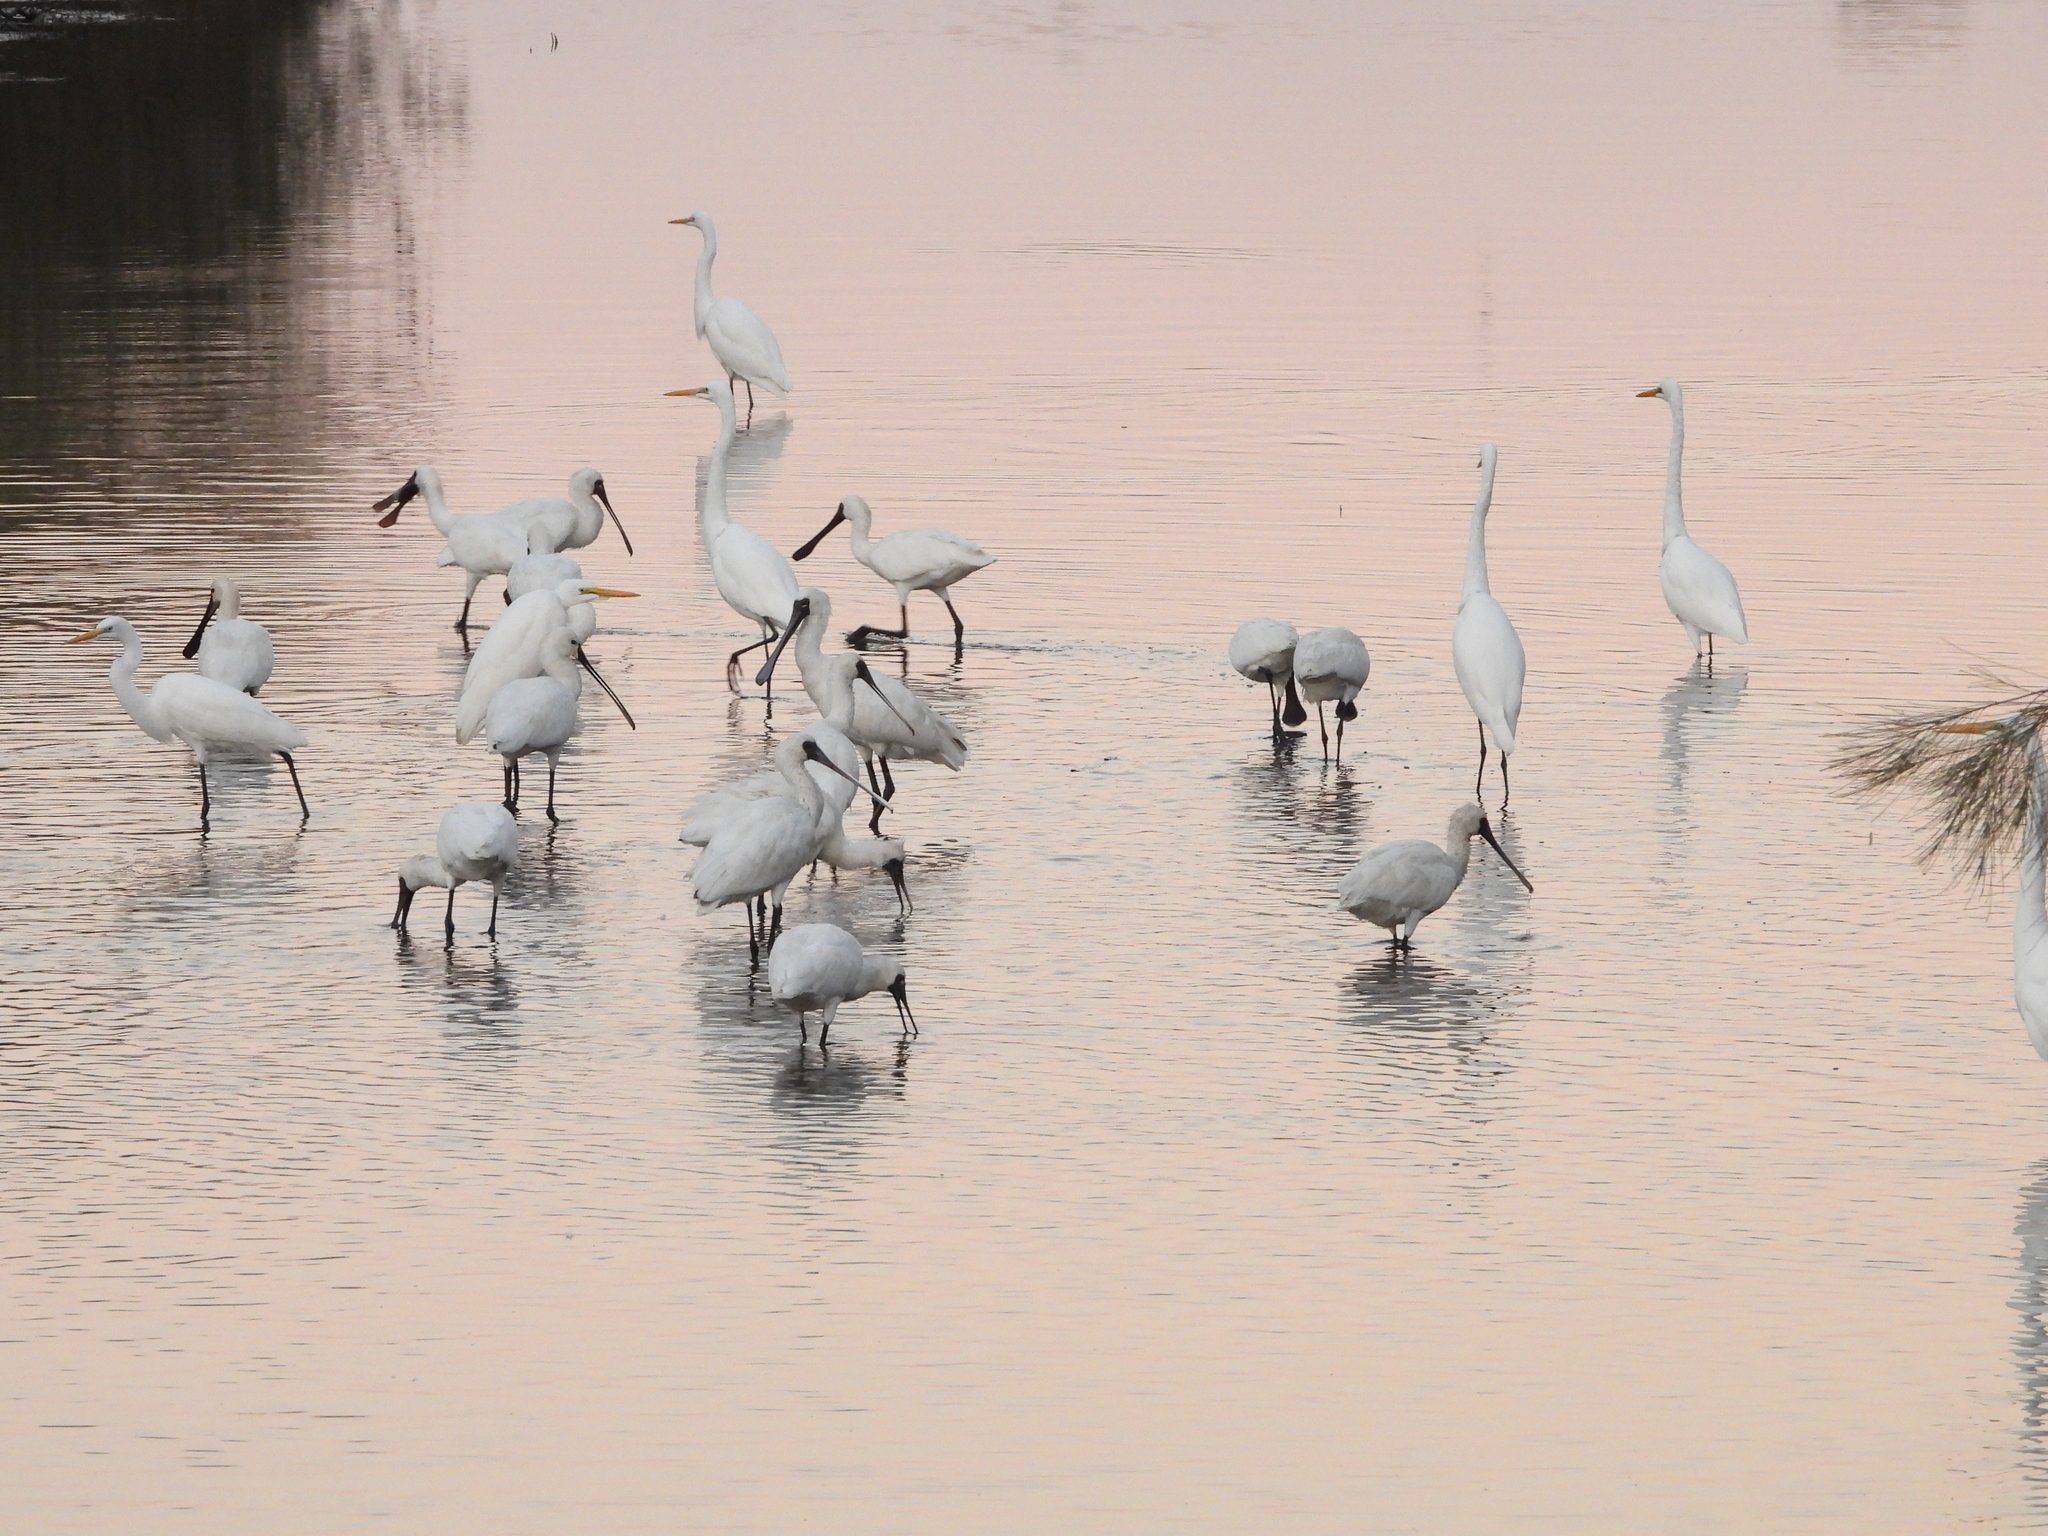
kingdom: Animalia
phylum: Chordata
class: Aves
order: Pelecaniformes
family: Threskiornithidae
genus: Platalea
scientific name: Platalea minor
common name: Black-faced spoonbill
